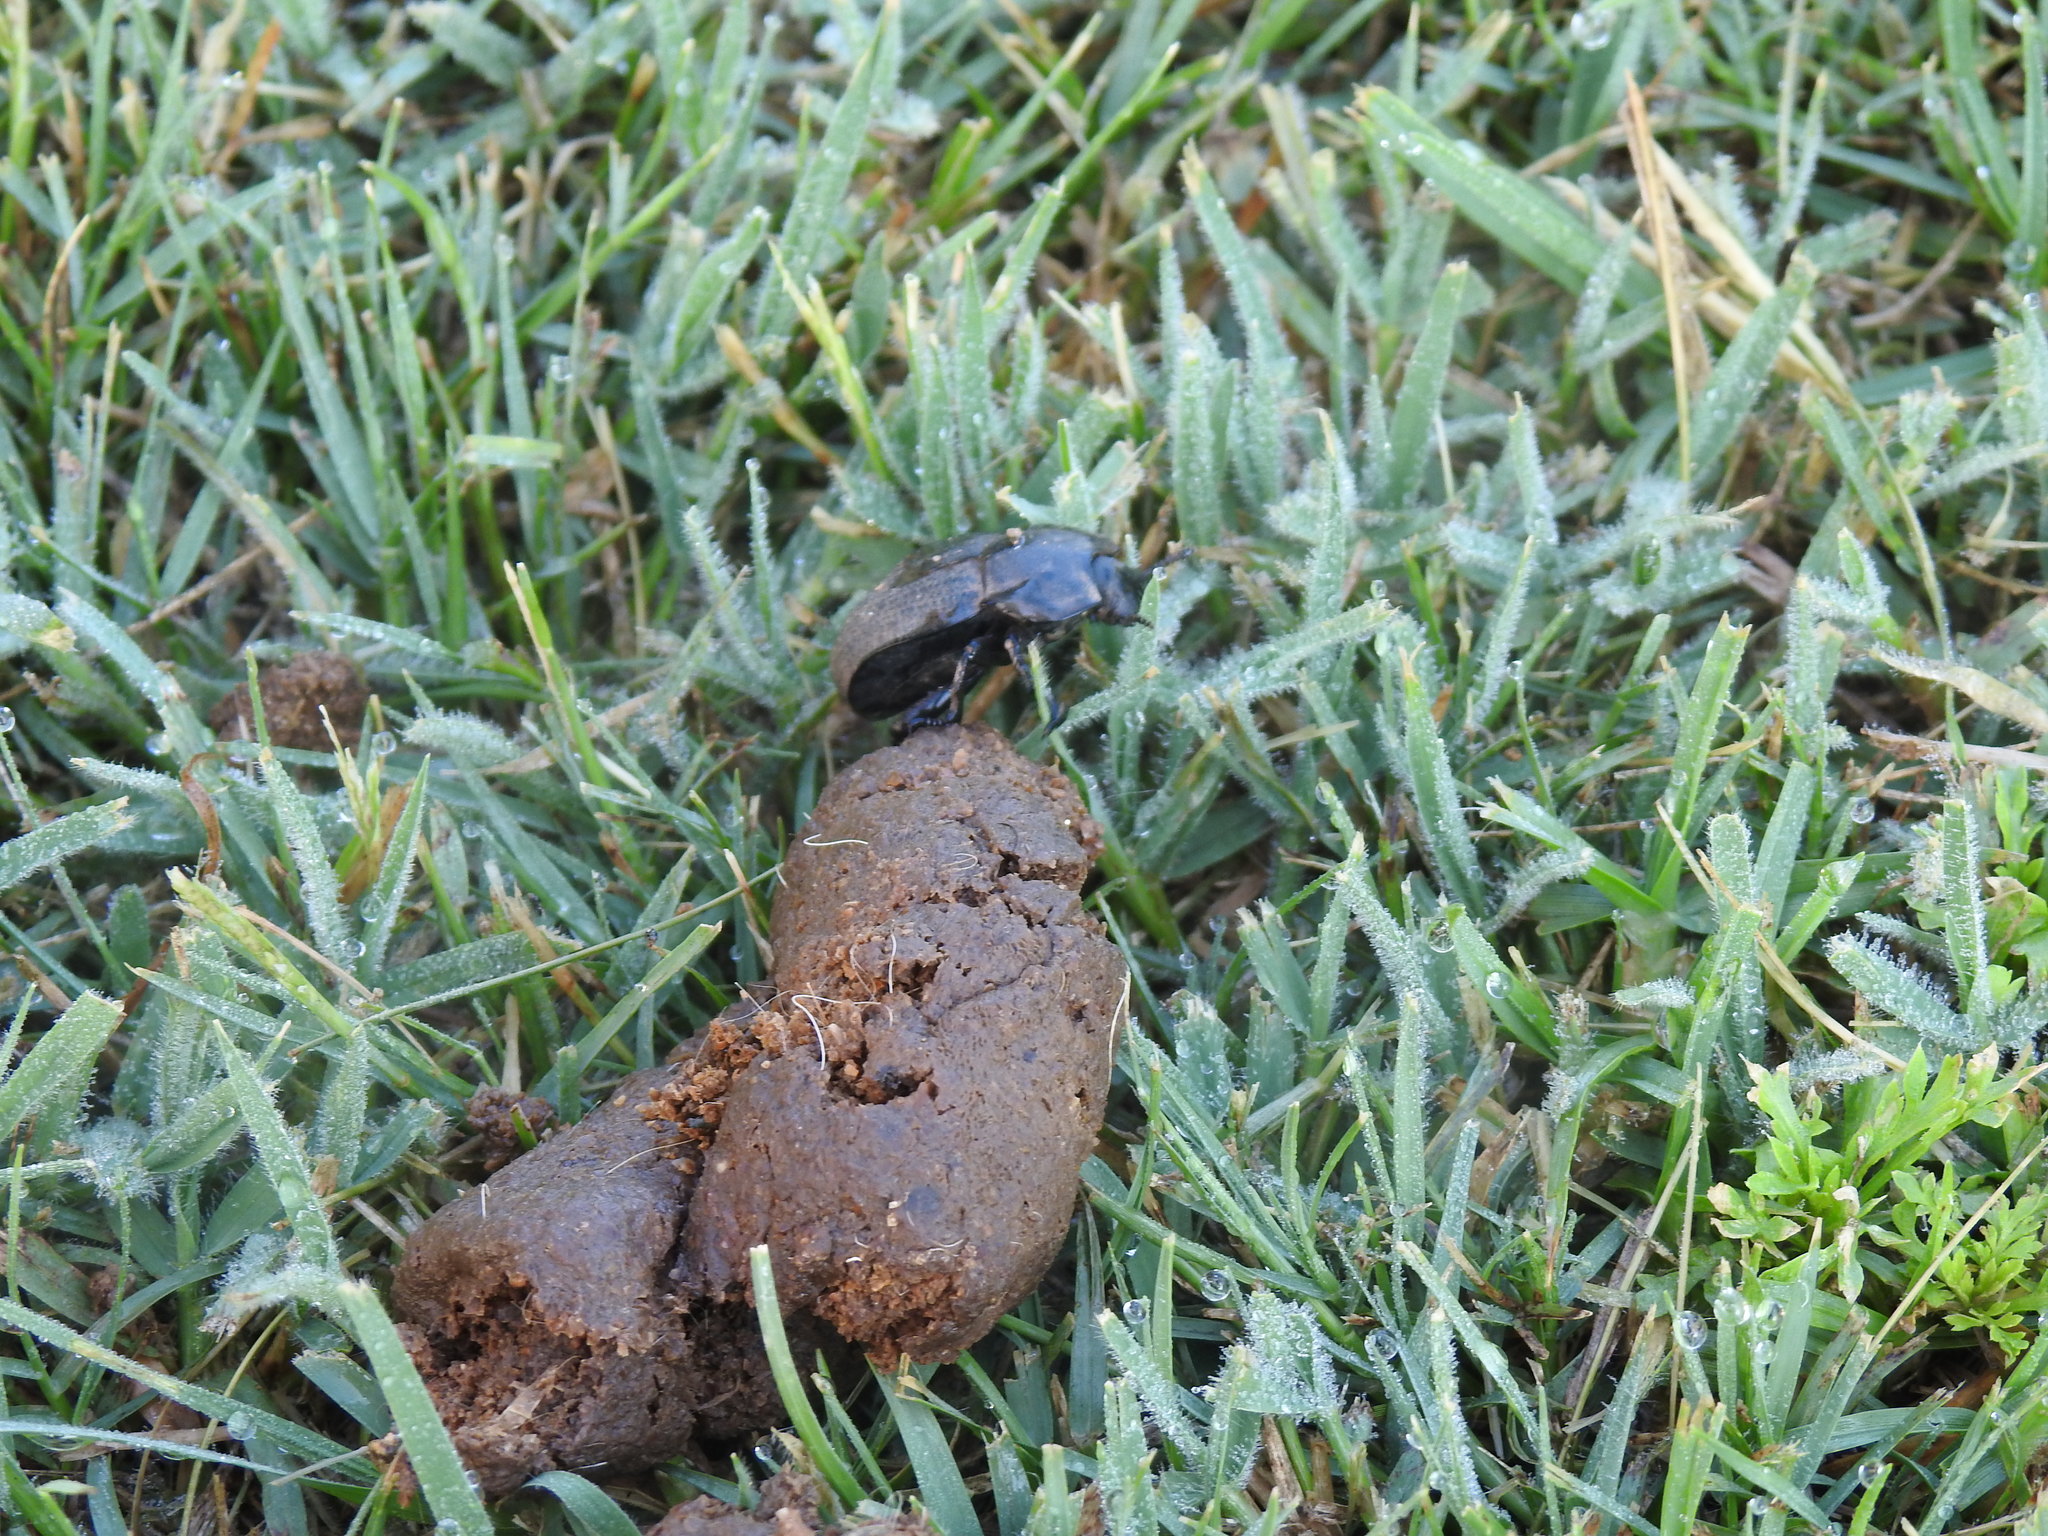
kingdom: Animalia
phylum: Arthropoda
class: Insecta
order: Coleoptera
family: Scarabaeidae
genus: Scarabaeus
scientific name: Scarabaeus rusticus
